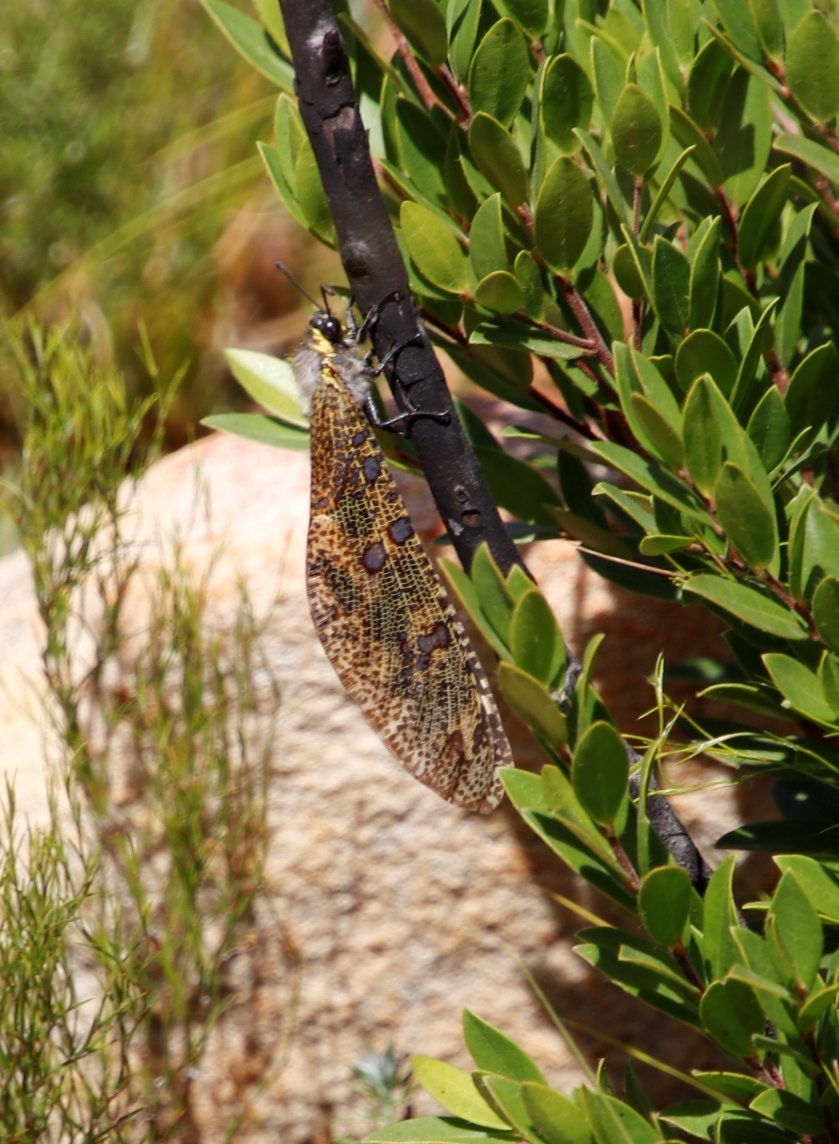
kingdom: Animalia
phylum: Arthropoda
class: Insecta
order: Neuroptera
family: Myrmeleontidae
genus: Palpares
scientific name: Palpares speciosus
